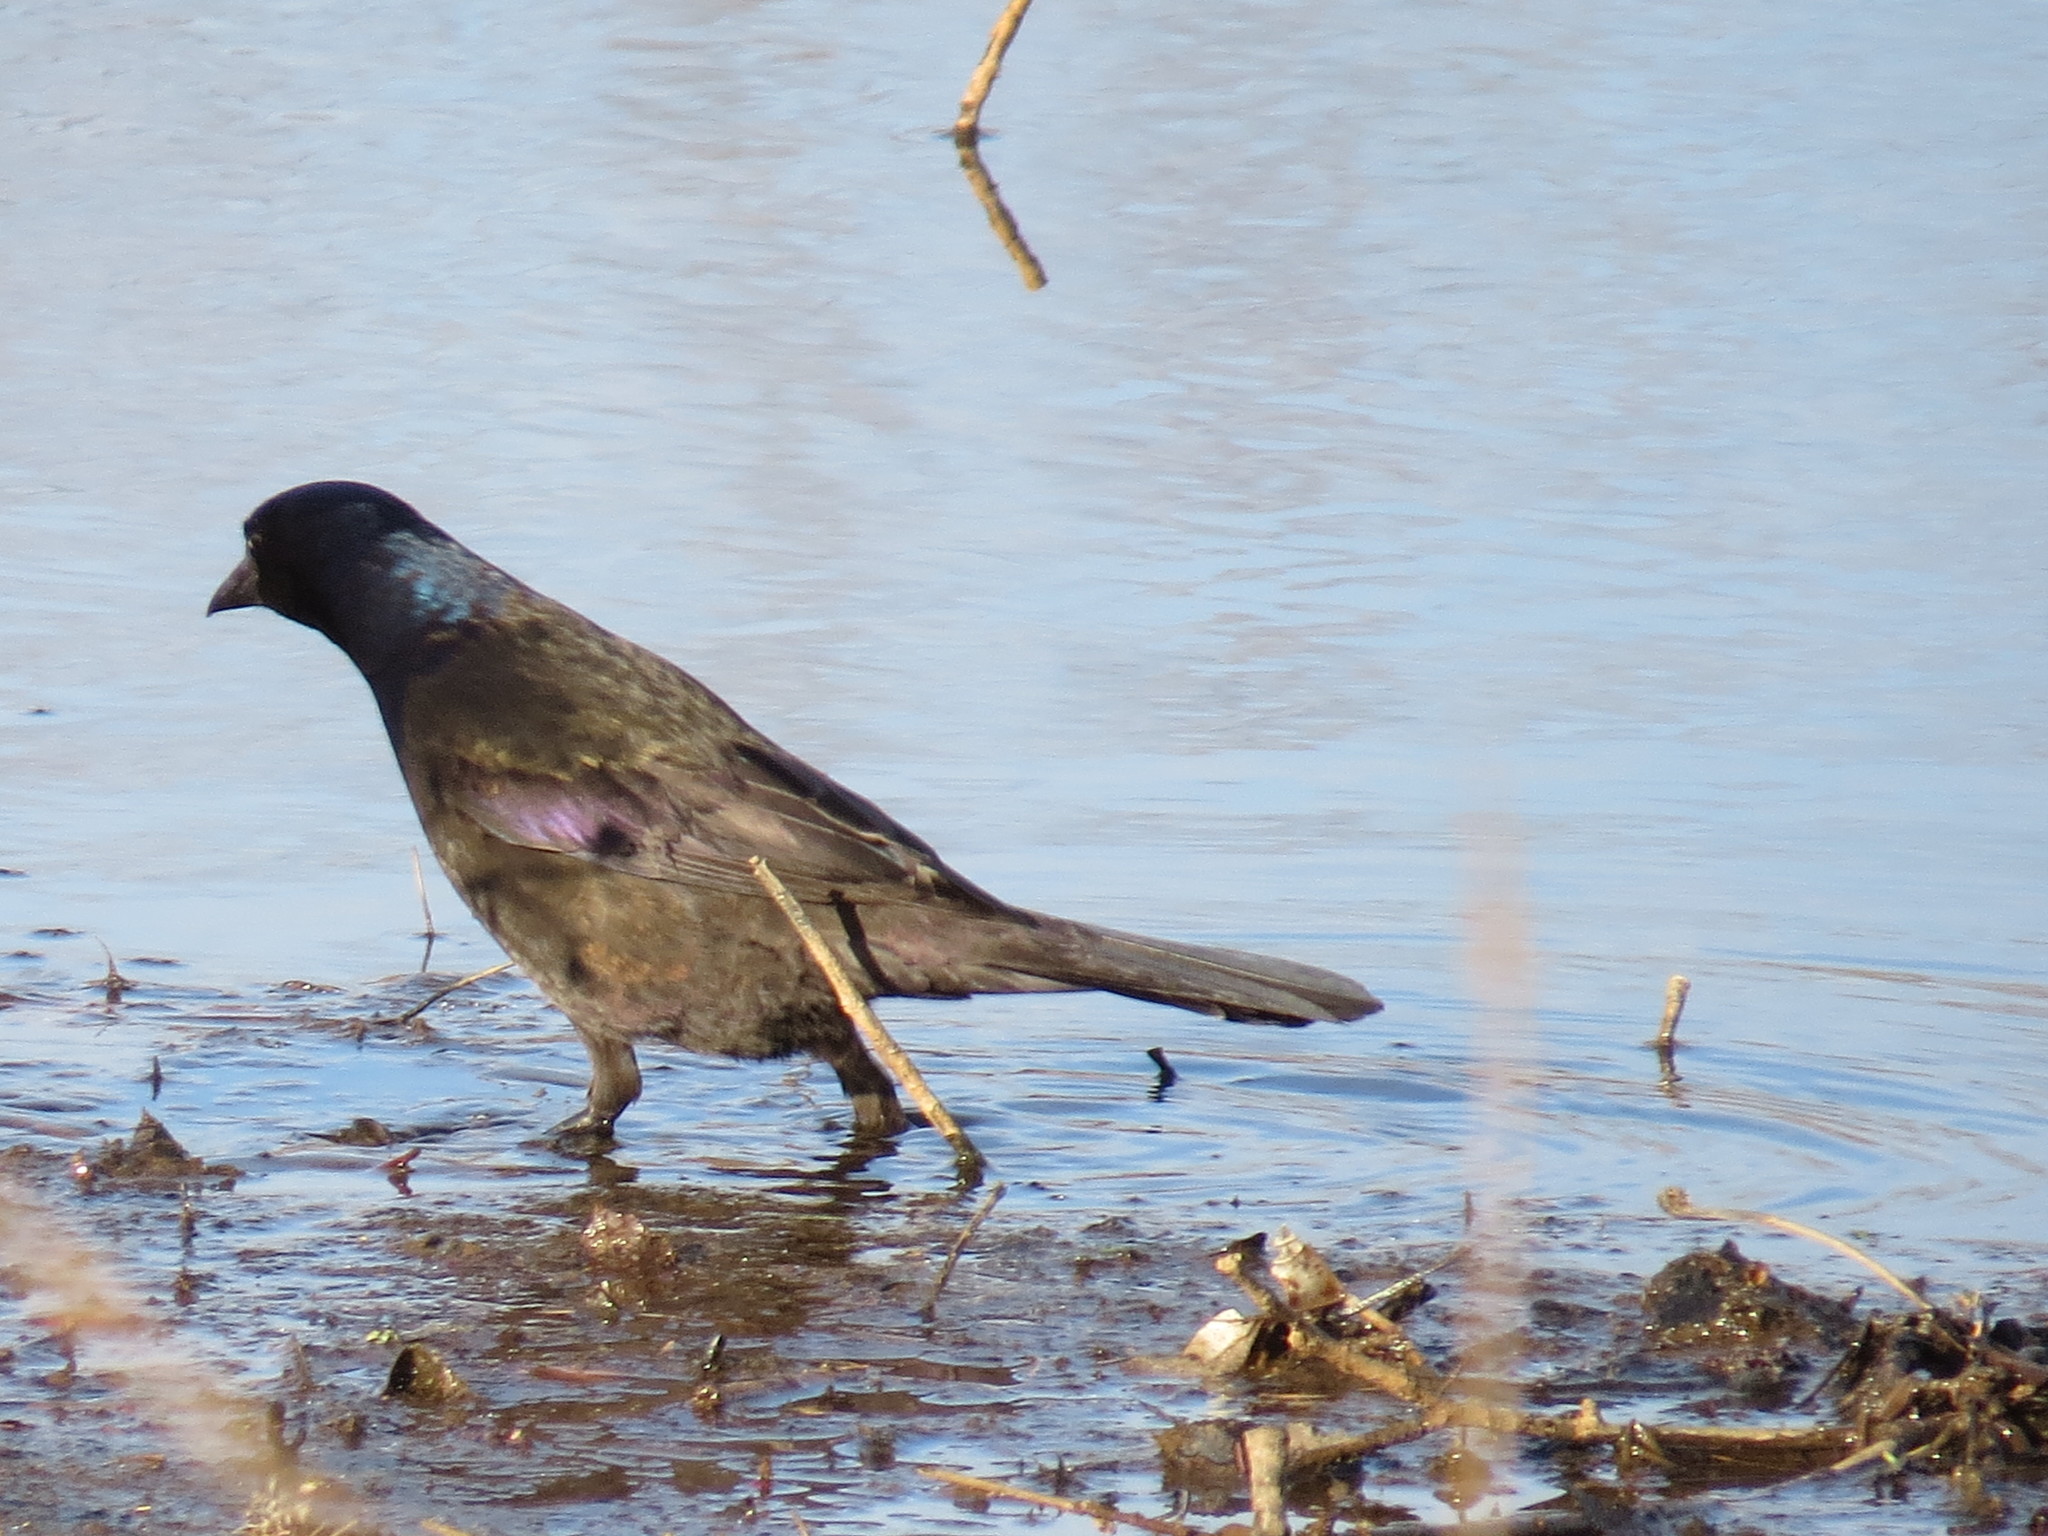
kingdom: Animalia
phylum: Chordata
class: Aves
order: Passeriformes
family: Icteridae
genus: Quiscalus
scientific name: Quiscalus quiscula
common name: Common grackle
